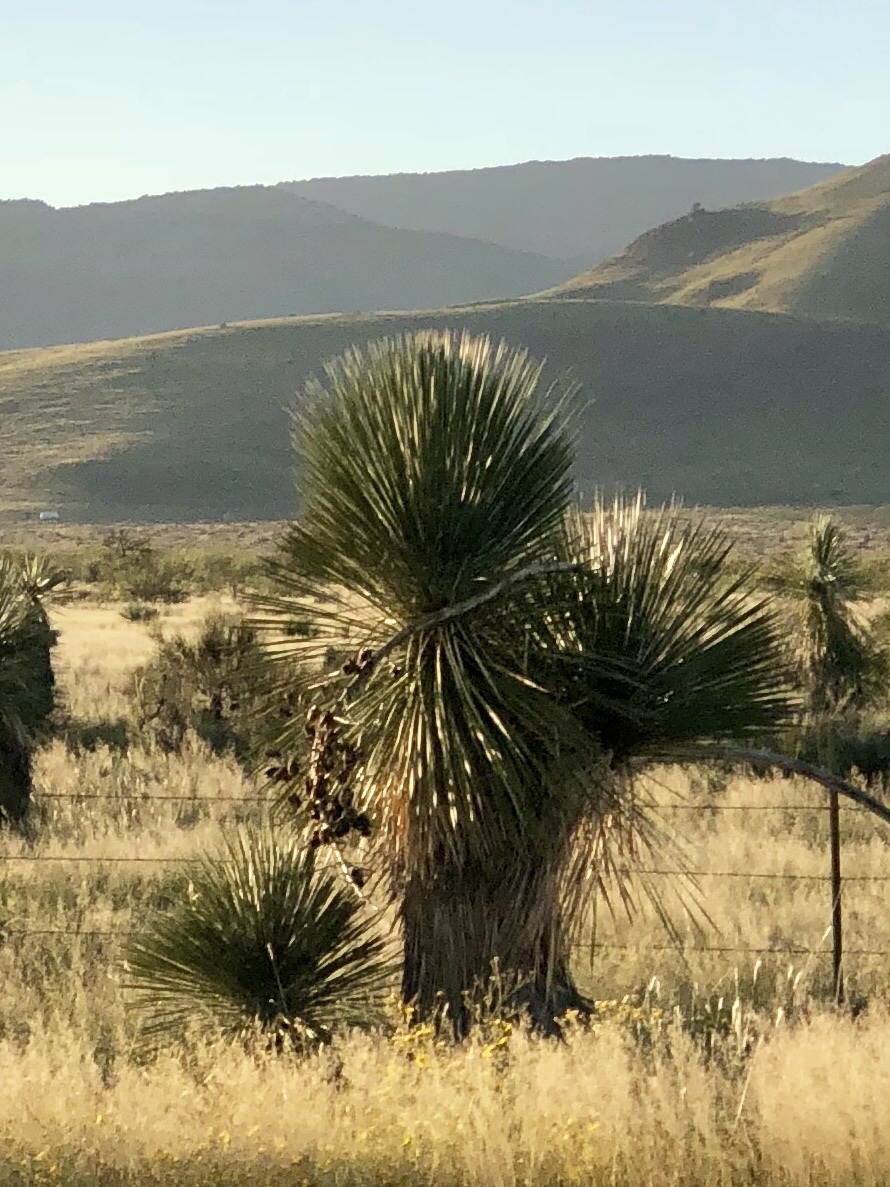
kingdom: Plantae
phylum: Tracheophyta
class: Liliopsida
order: Asparagales
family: Asparagaceae
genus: Yucca
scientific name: Yucca elata
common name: Palmella
